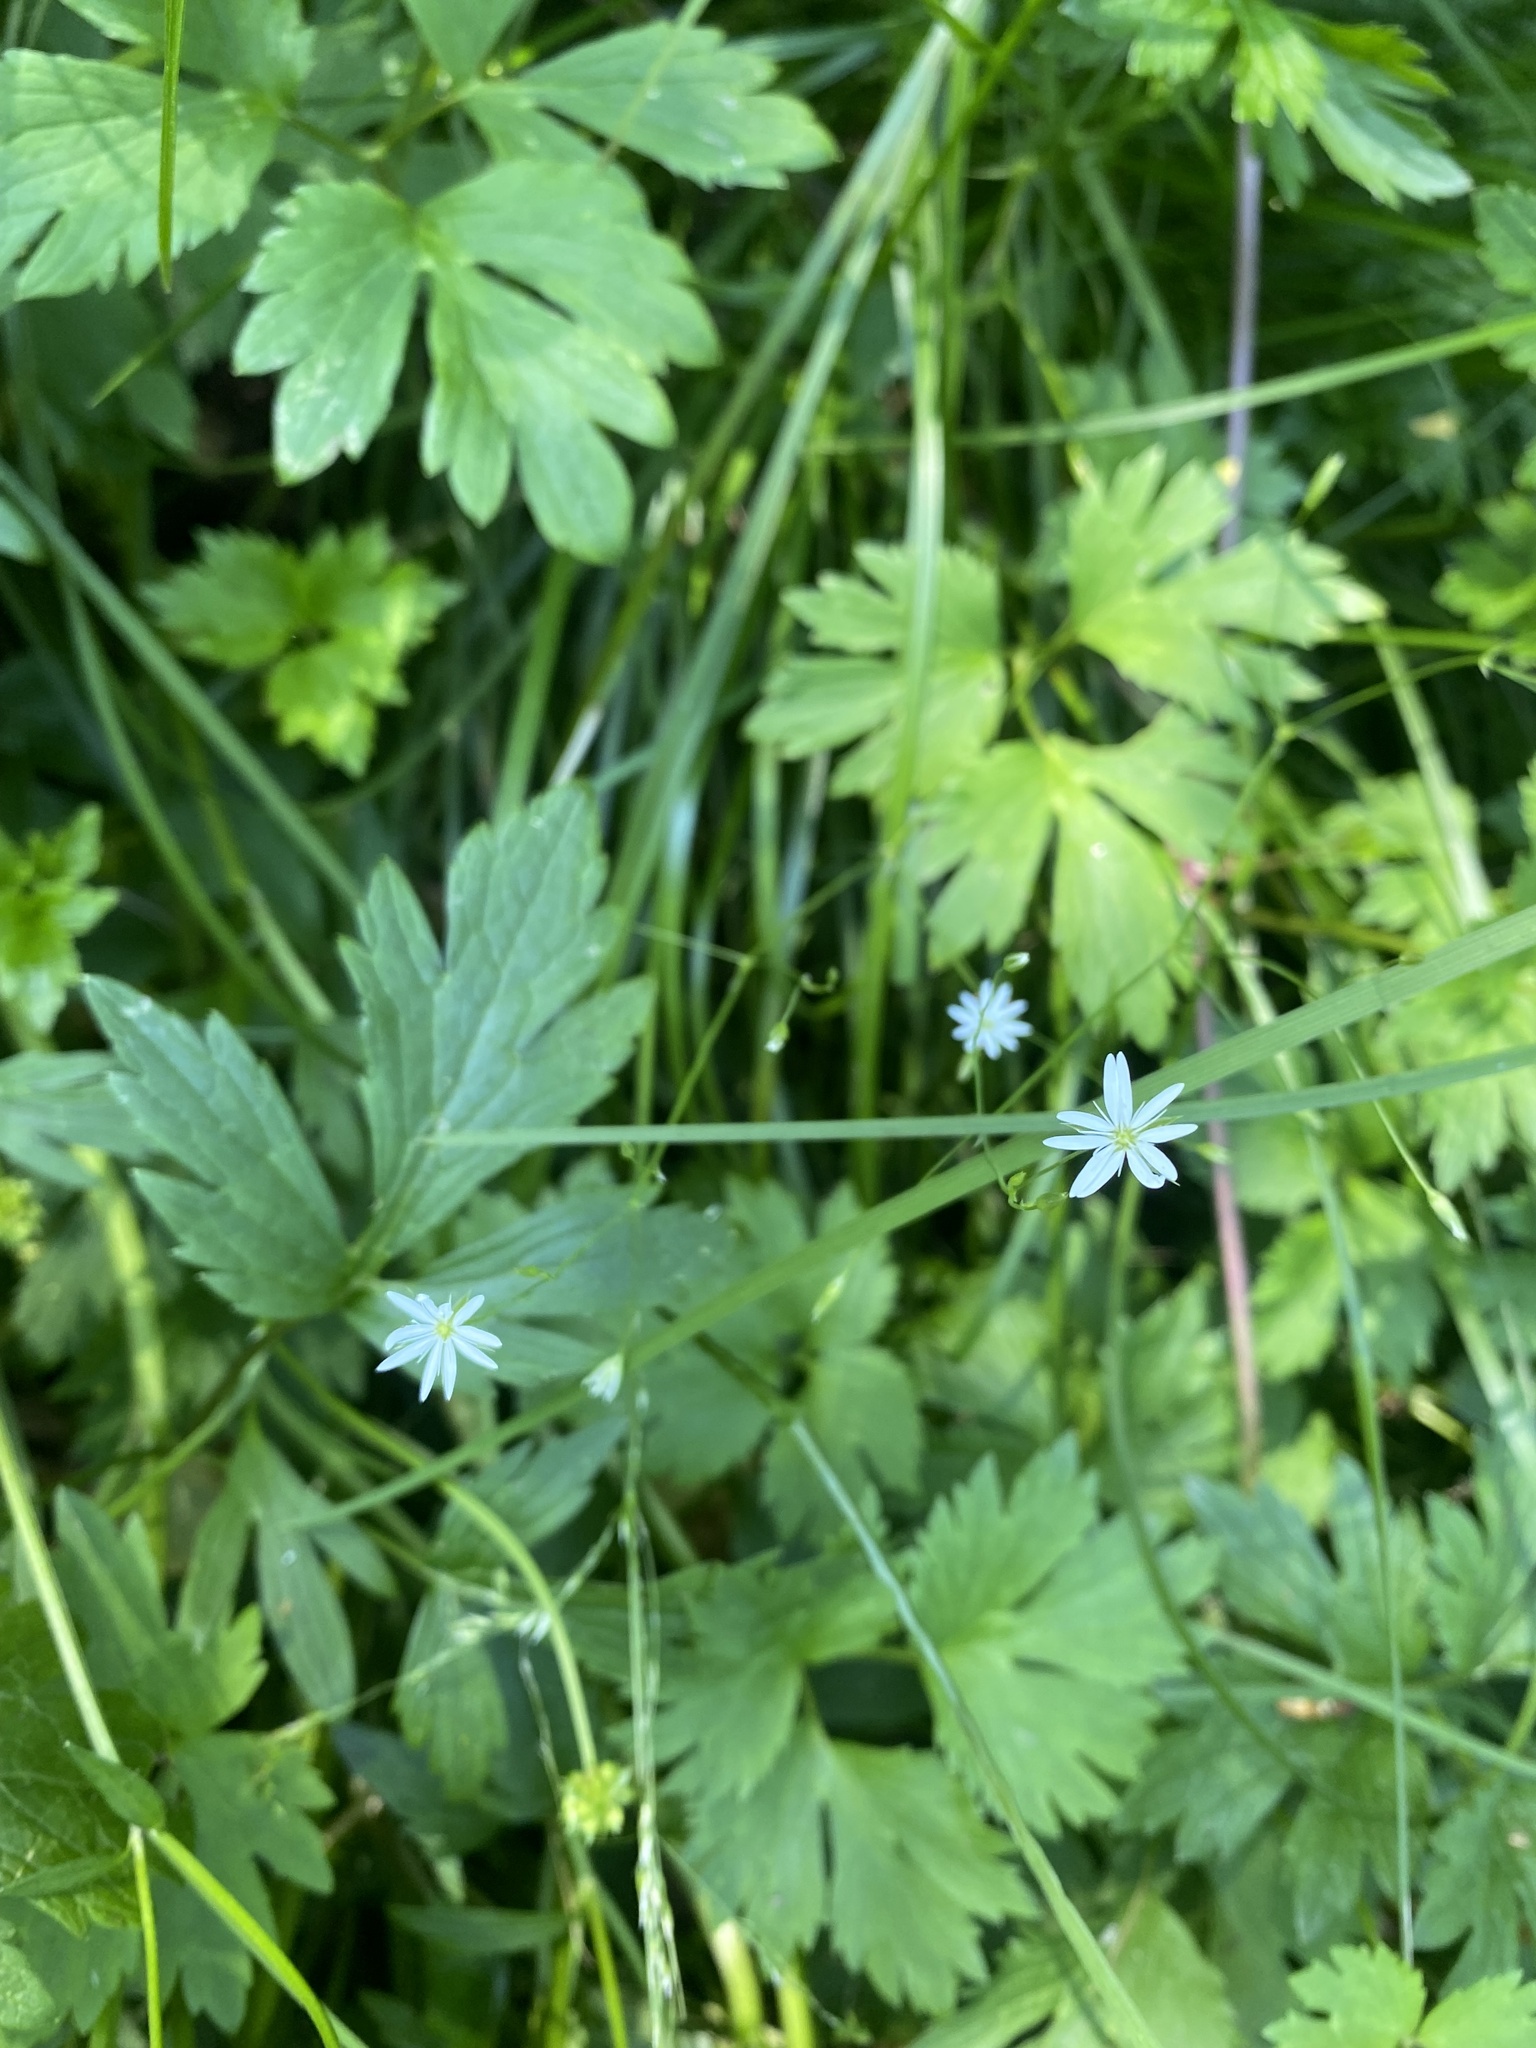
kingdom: Plantae
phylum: Tracheophyta
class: Magnoliopsida
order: Caryophyllales
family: Caryophyllaceae
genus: Stellaria
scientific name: Stellaria graminea
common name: Grass-like starwort
